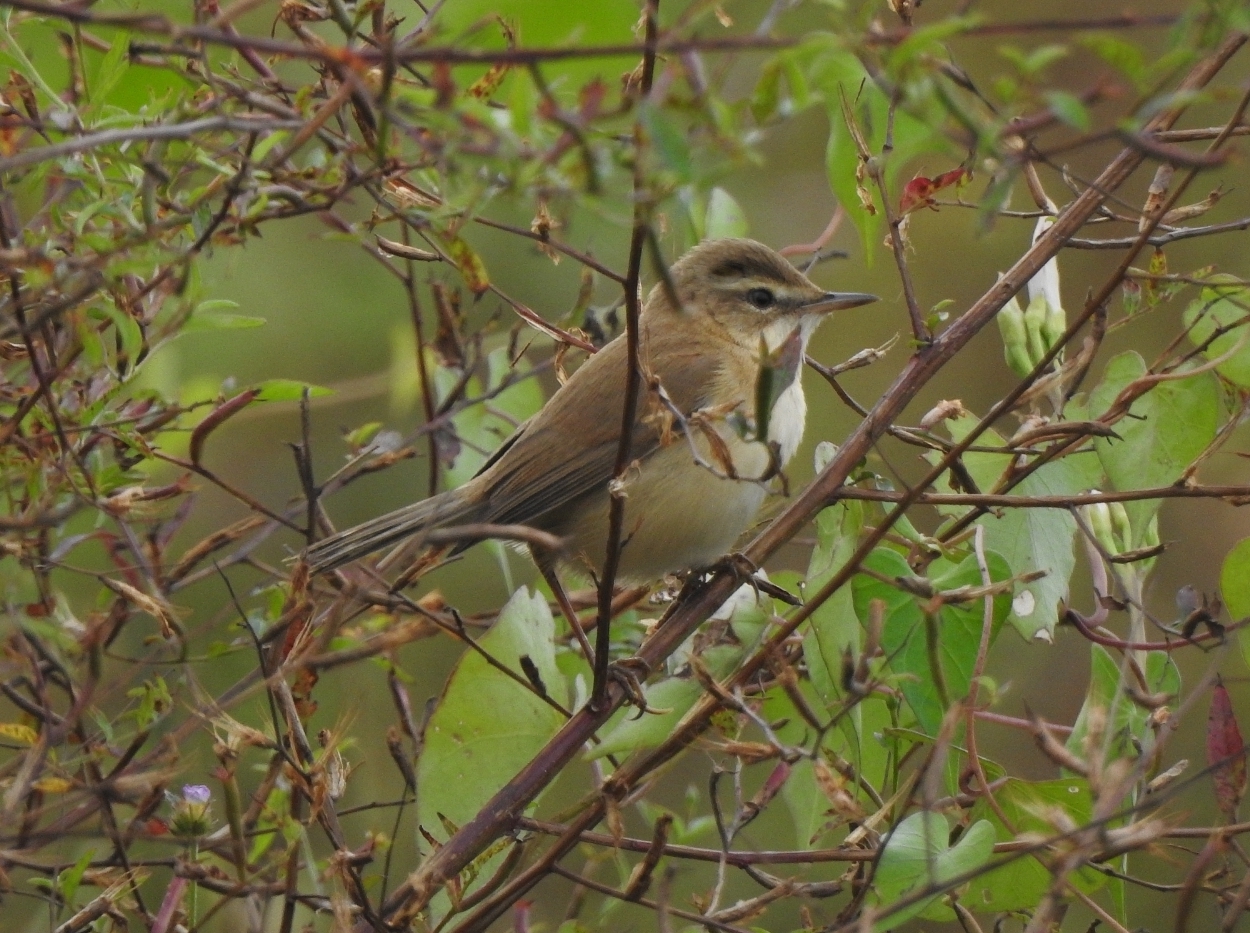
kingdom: Animalia
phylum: Chordata
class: Aves
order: Passeriformes
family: Acrocephalidae
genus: Acrocephalus
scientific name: Acrocephalus agricola
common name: Paddyfield warbler
